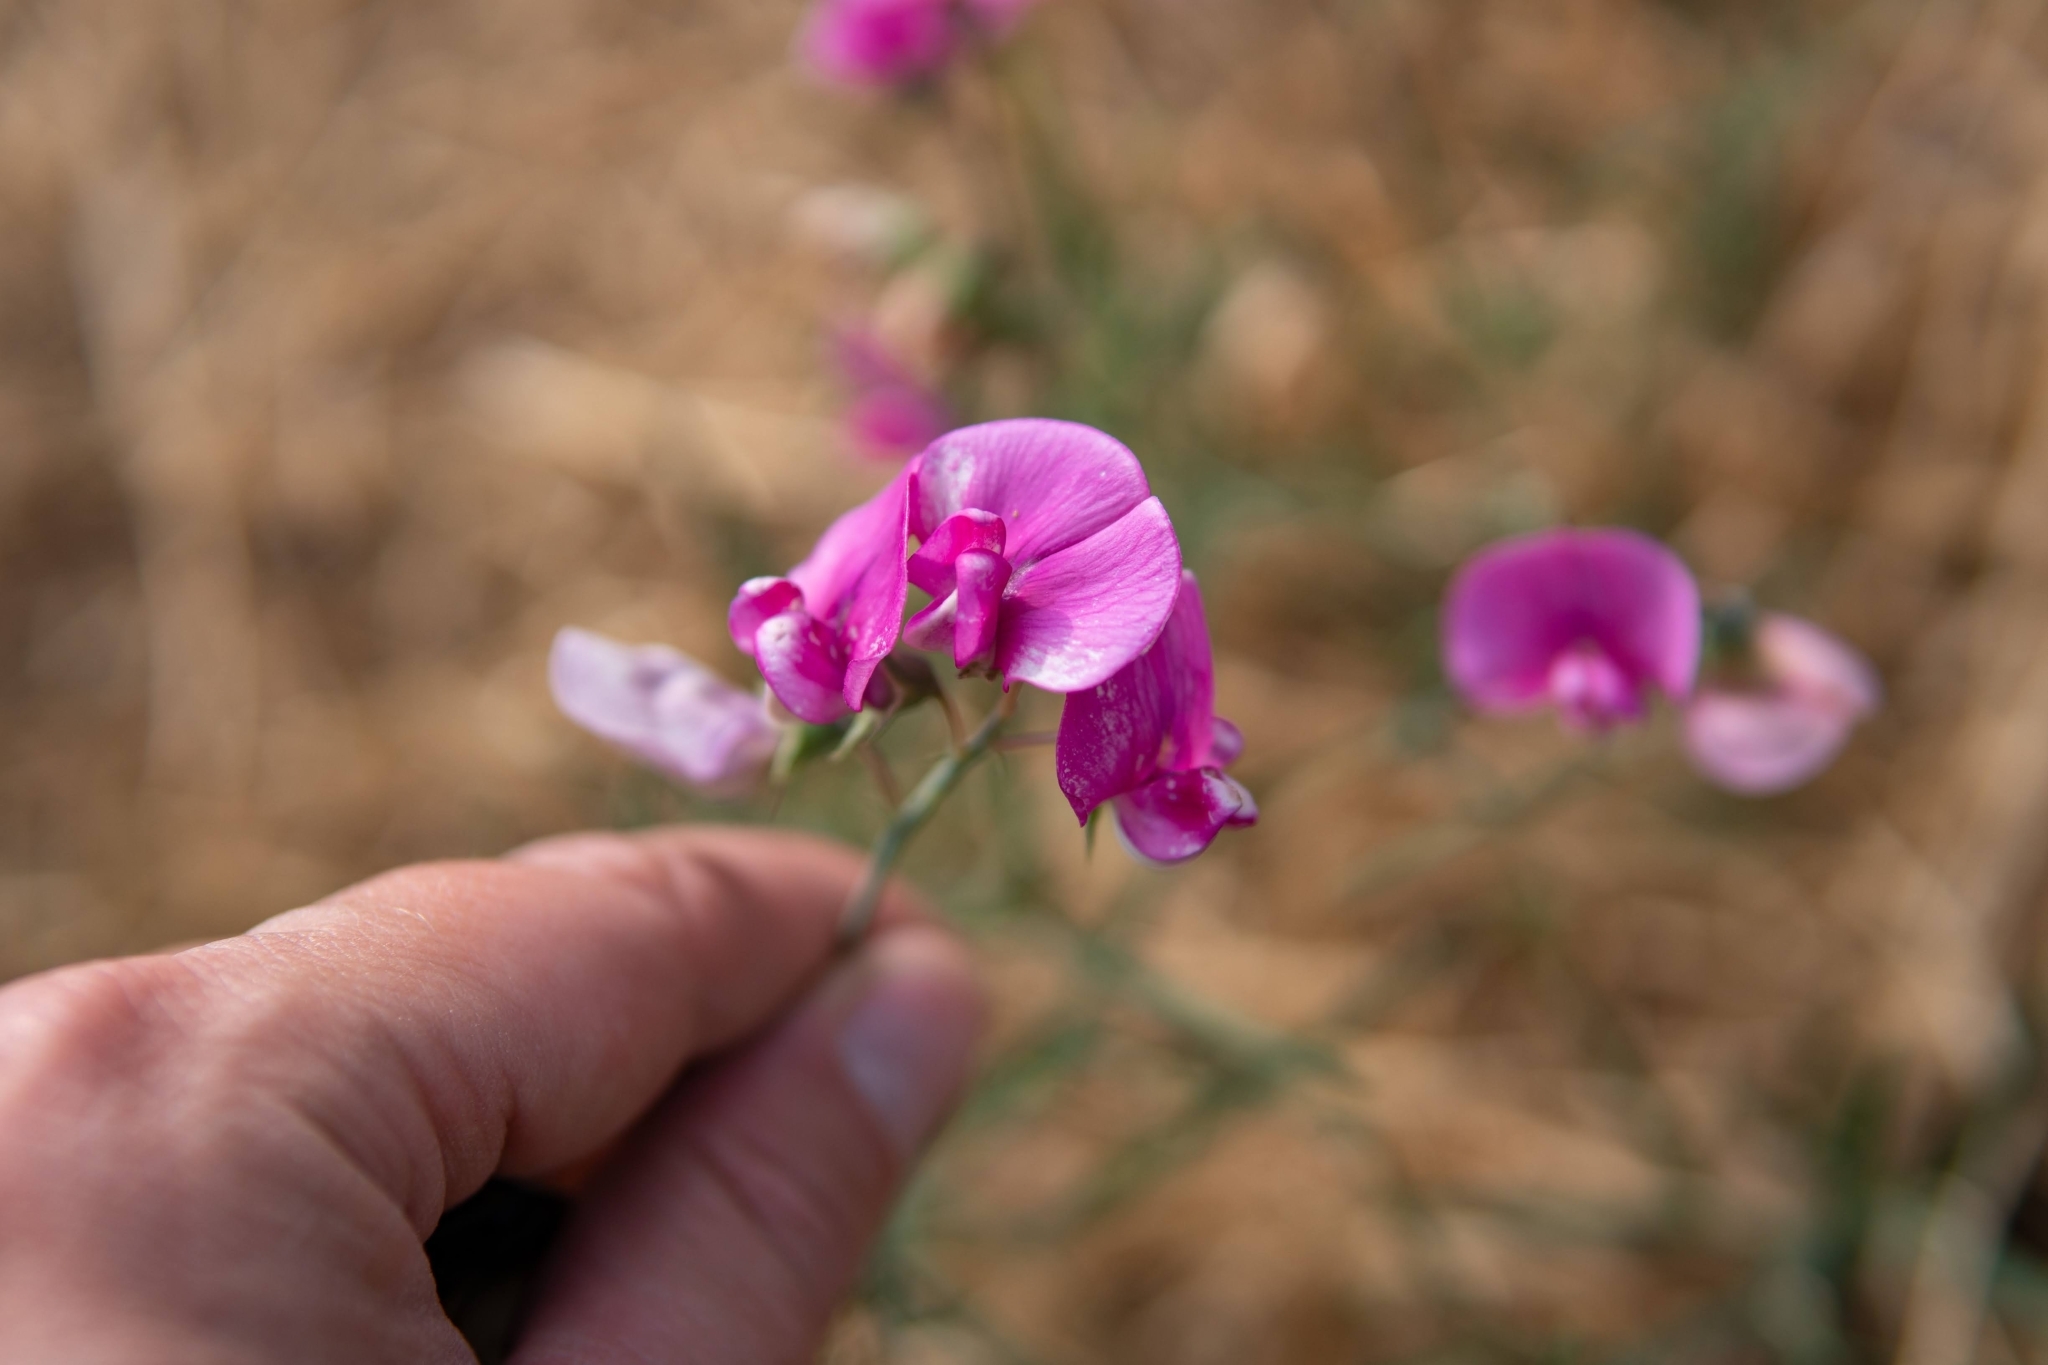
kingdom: Plantae
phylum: Tracheophyta
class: Magnoliopsida
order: Fabales
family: Fabaceae
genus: Lathyrus
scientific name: Lathyrus latifolius
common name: Perennial pea
